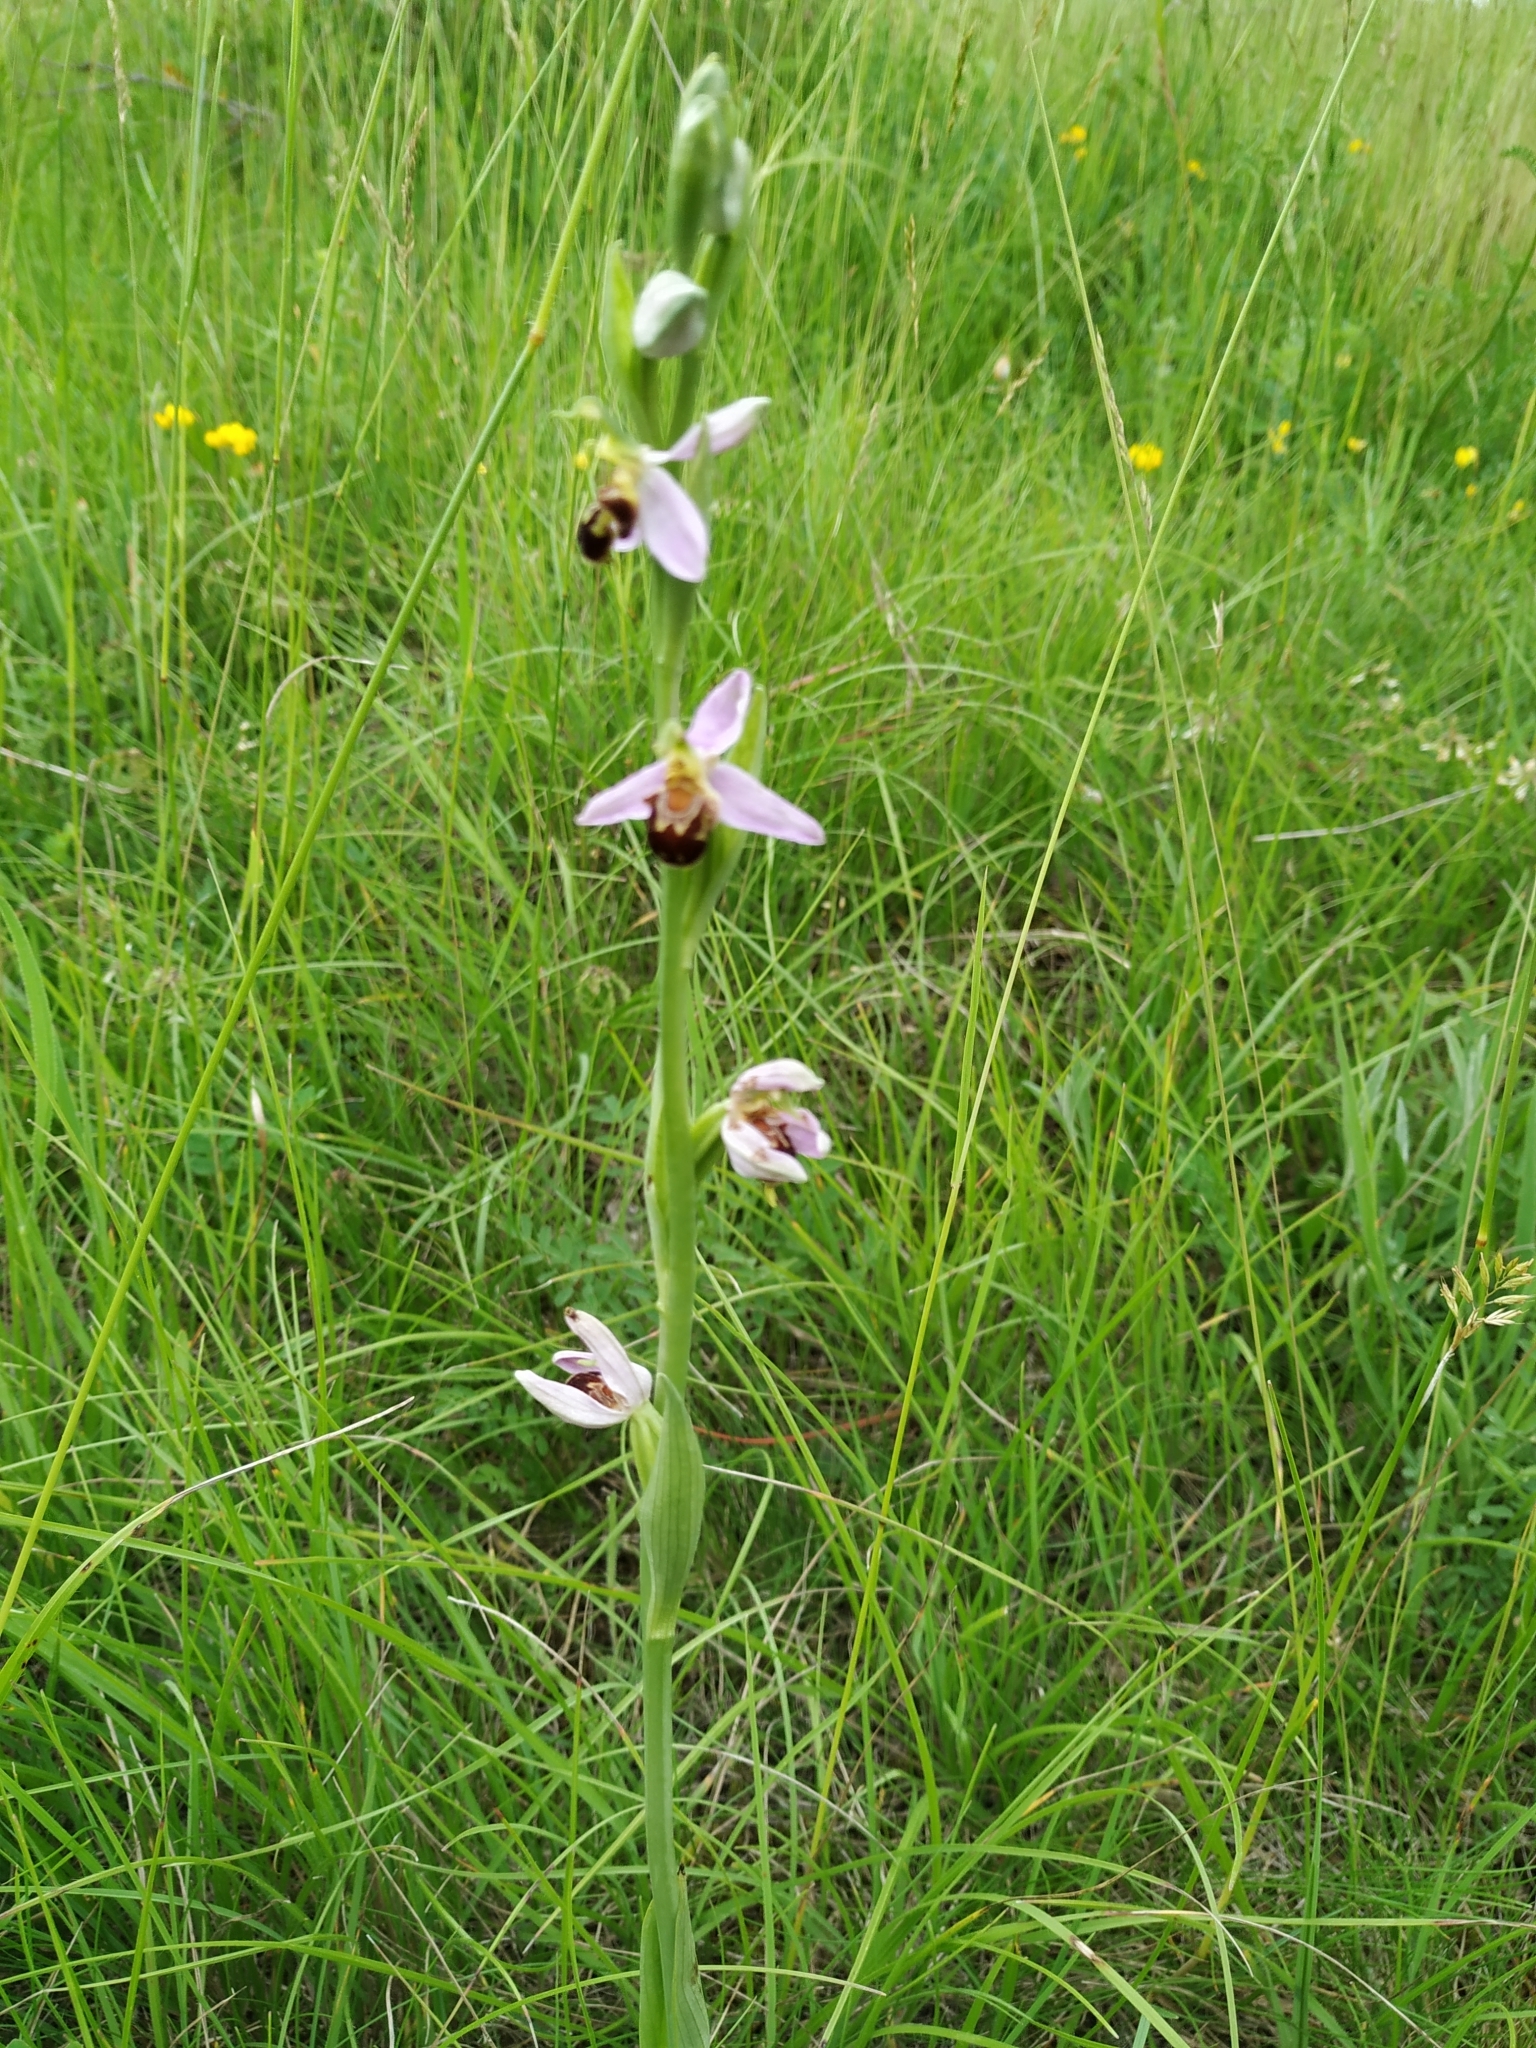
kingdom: Plantae
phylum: Tracheophyta
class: Liliopsida
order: Asparagales
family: Orchidaceae
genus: Ophrys
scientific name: Ophrys apifera
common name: Bee orchid
